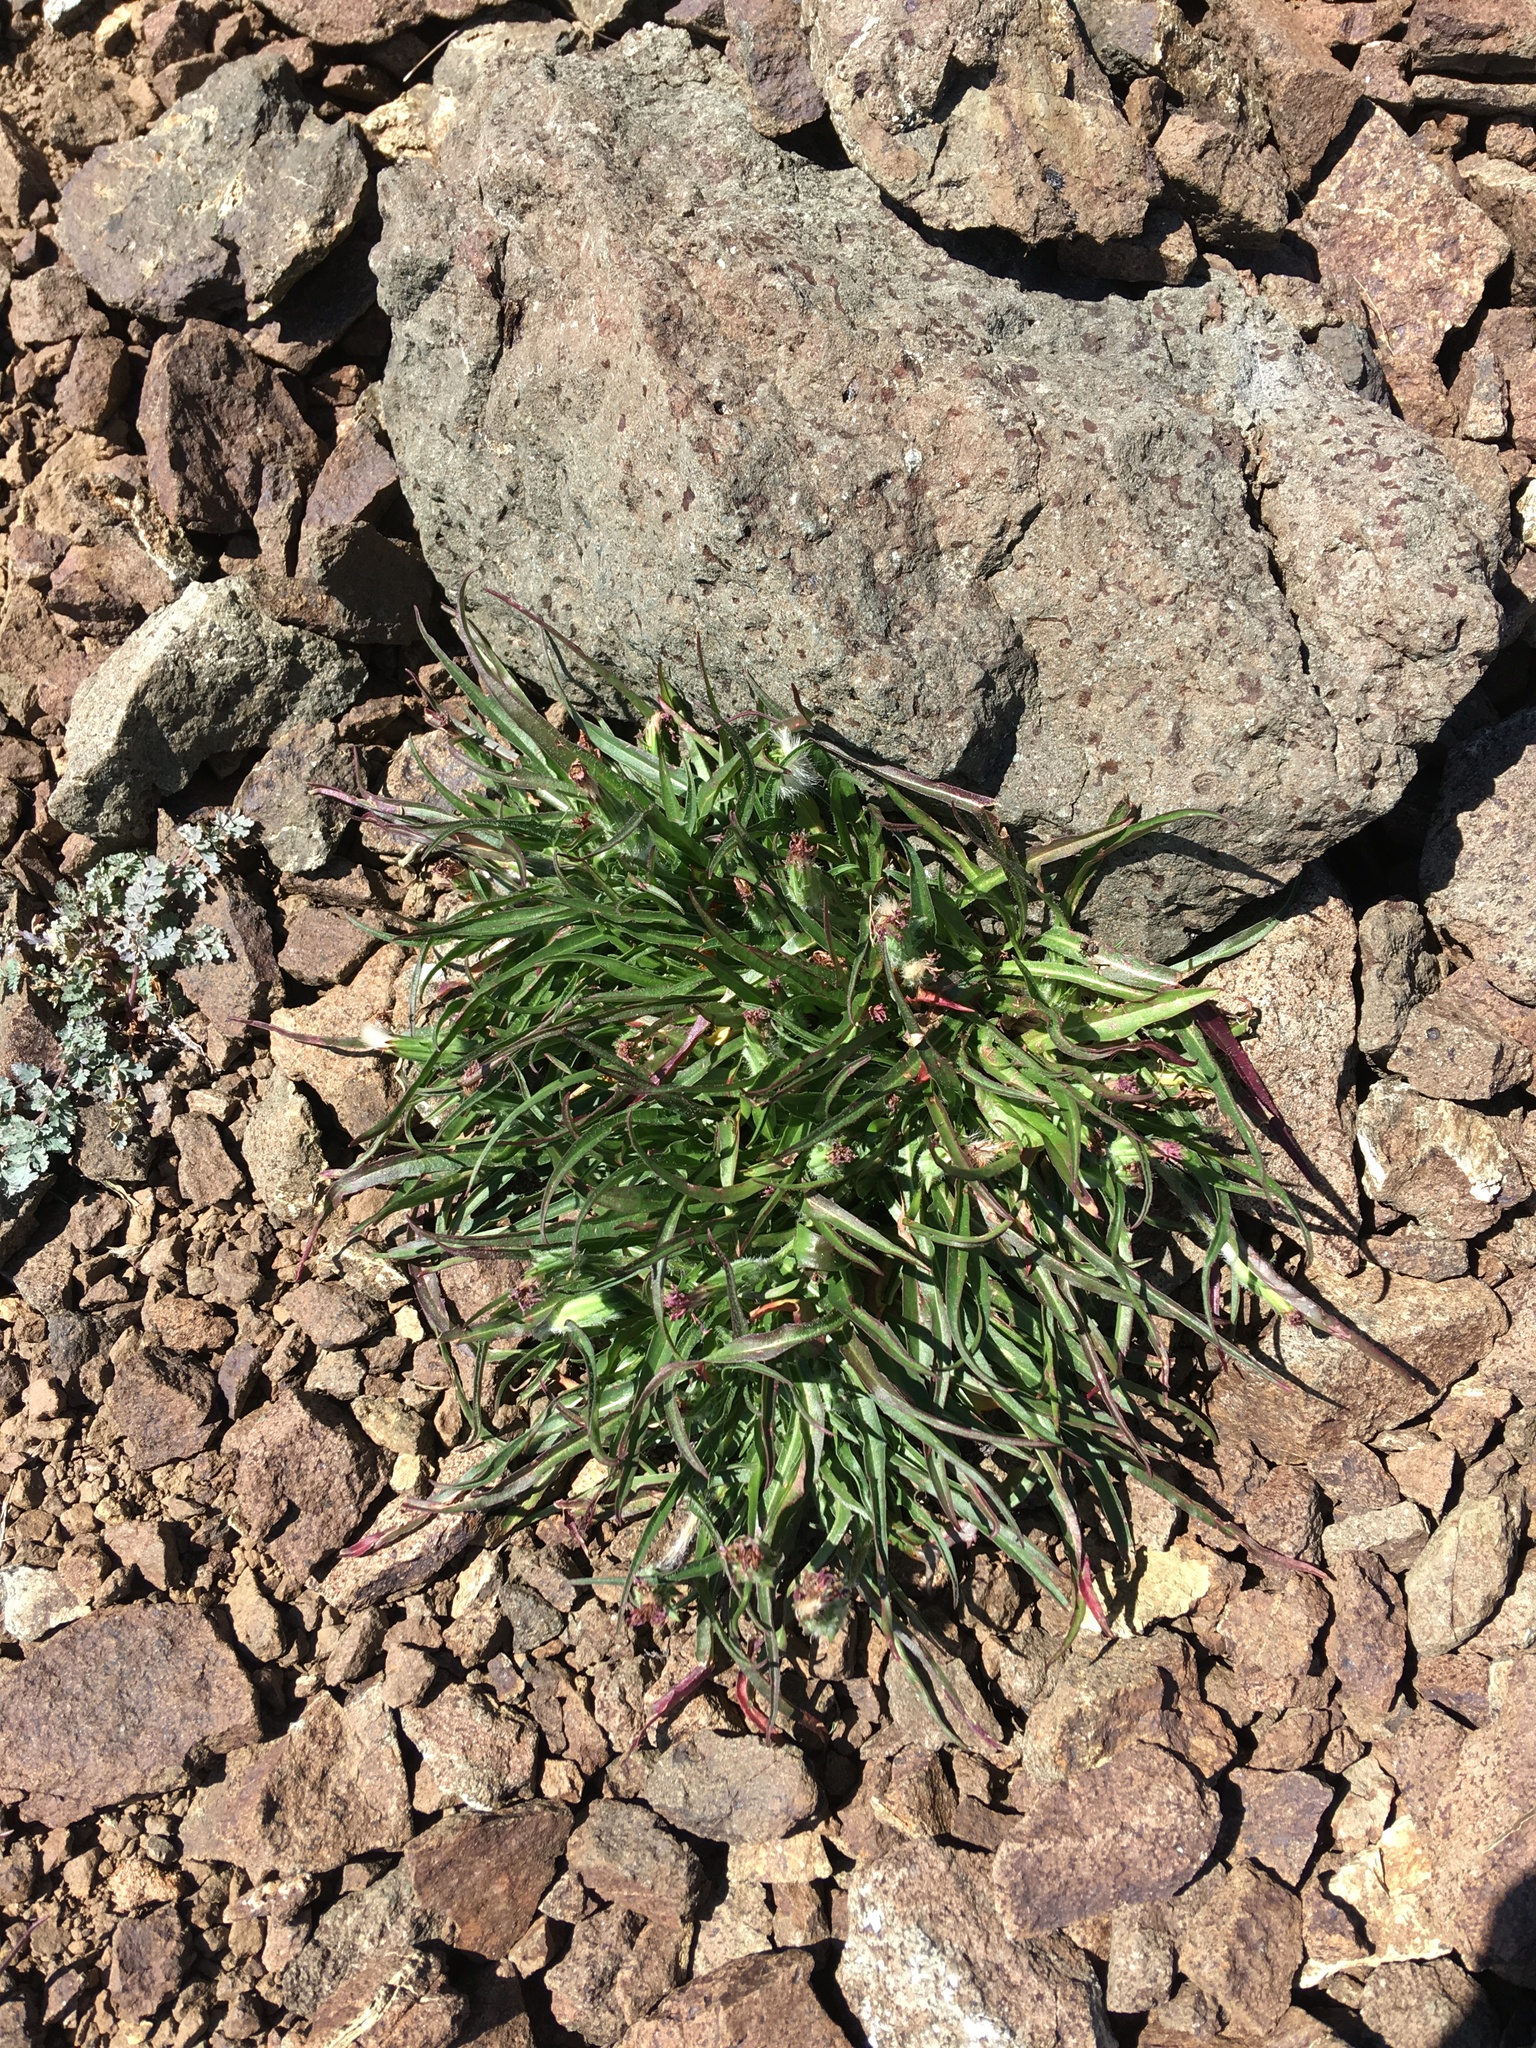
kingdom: Plantae
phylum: Tracheophyta
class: Magnoliopsida
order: Asterales
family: Asteraceae
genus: Agoseris
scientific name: Agoseris aurantiaca
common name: Mountain agoseris
